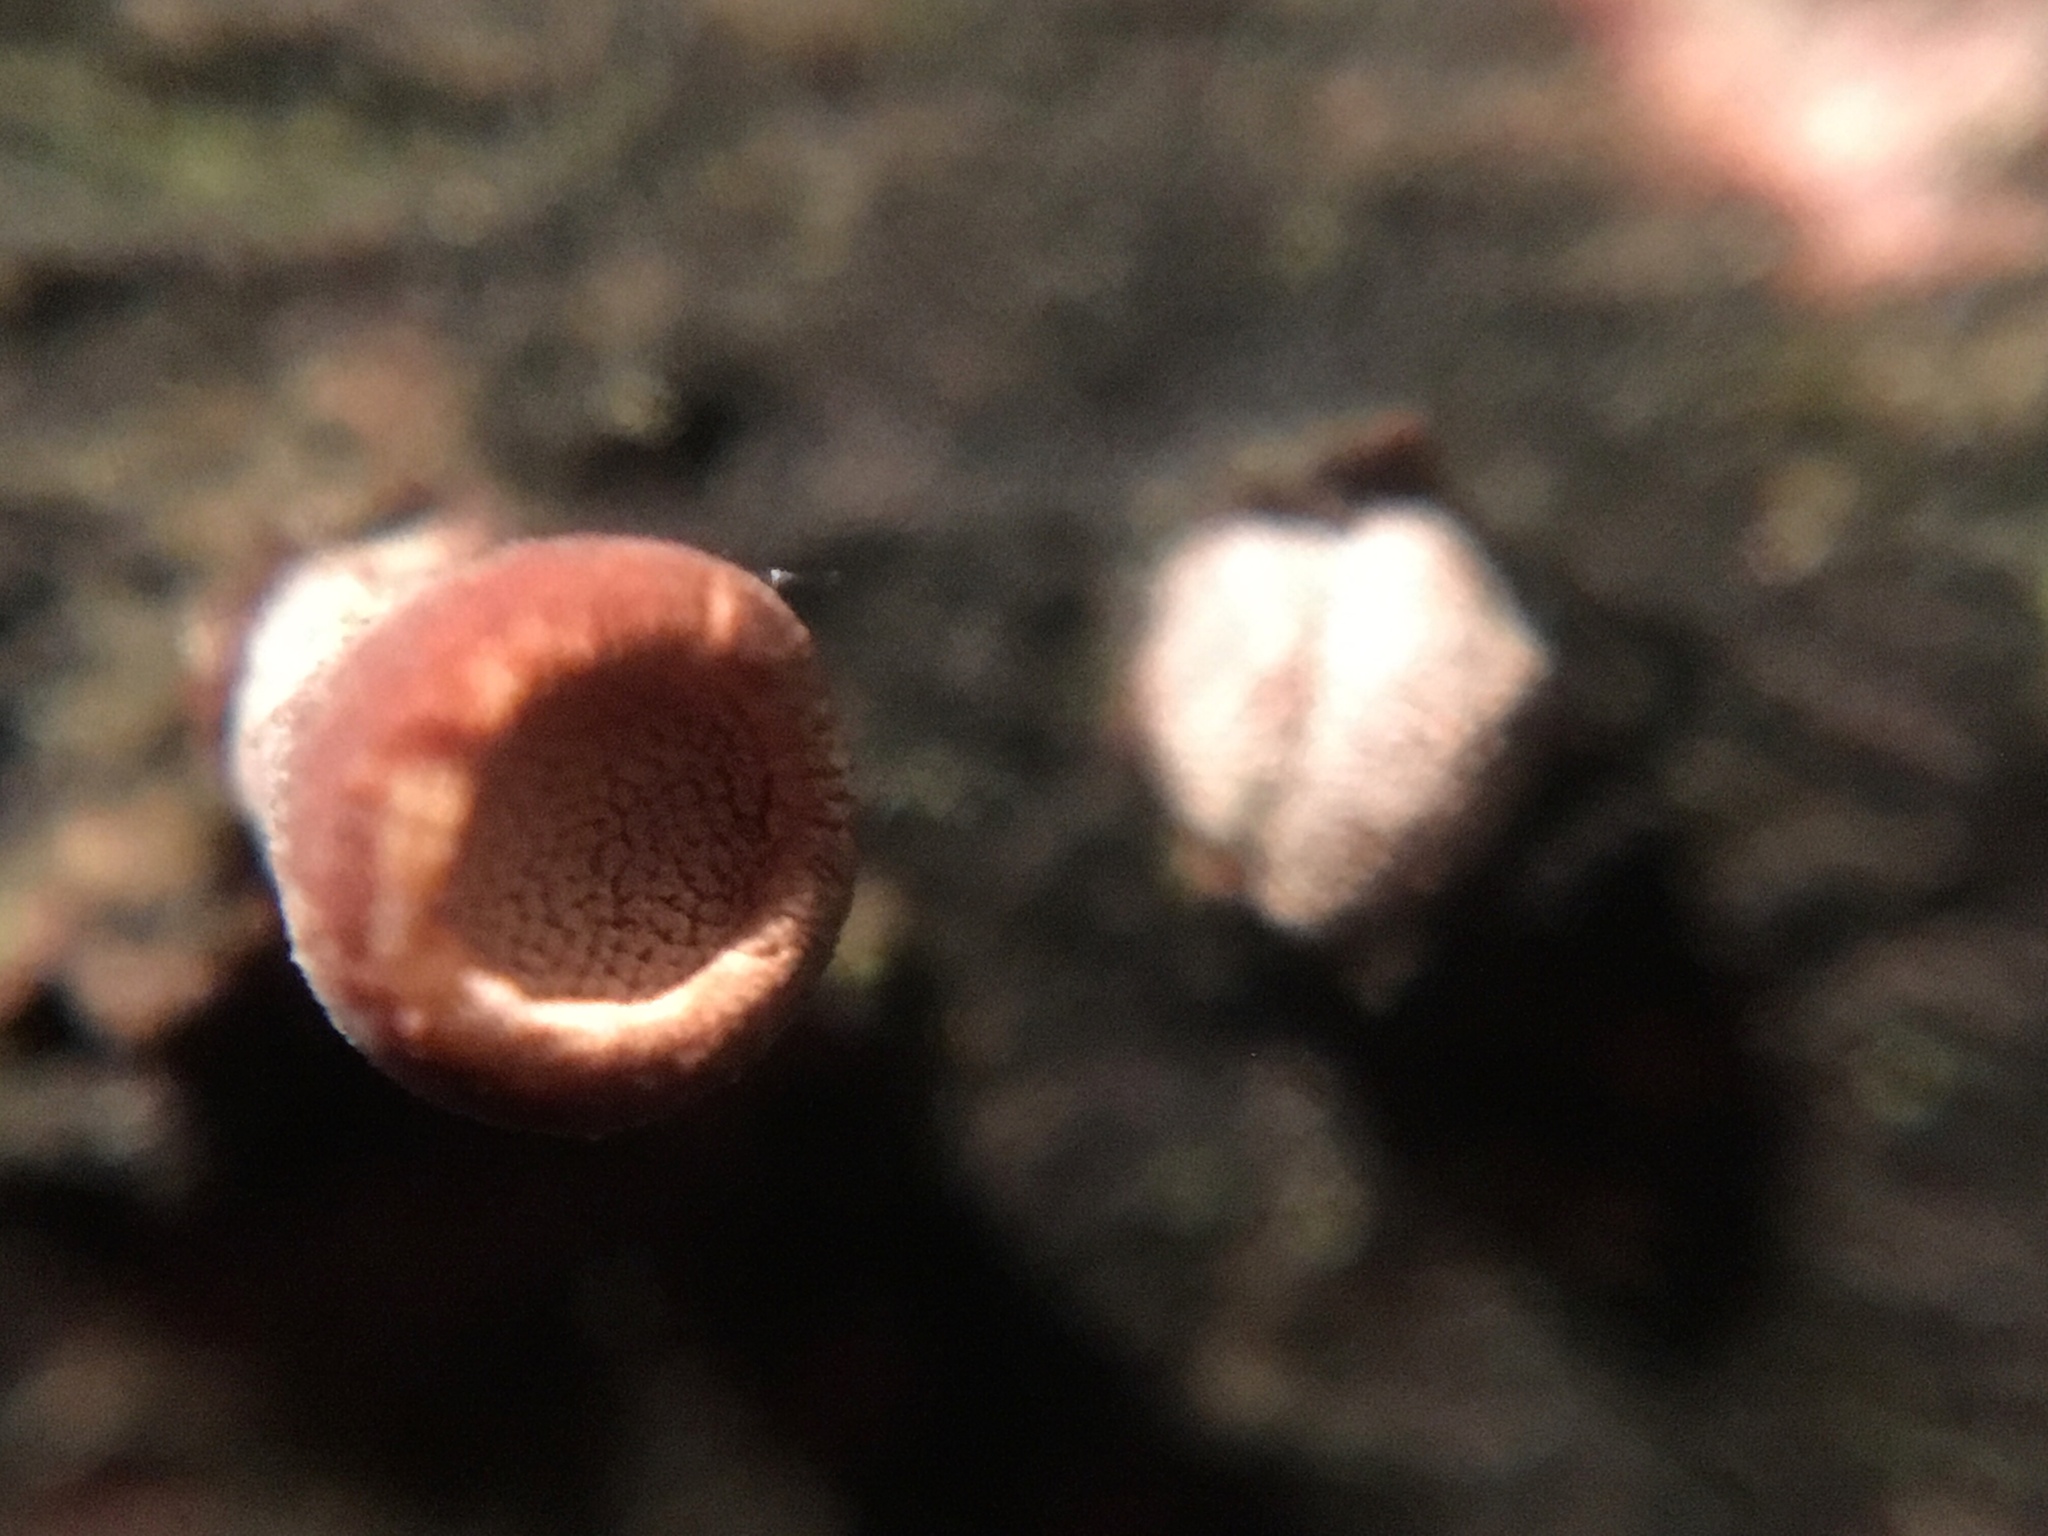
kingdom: Fungi
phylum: Basidiomycota
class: Agaricomycetes
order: Agaricales
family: Schizophyllaceae
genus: Porodisculus
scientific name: Porodisculus pendulus
